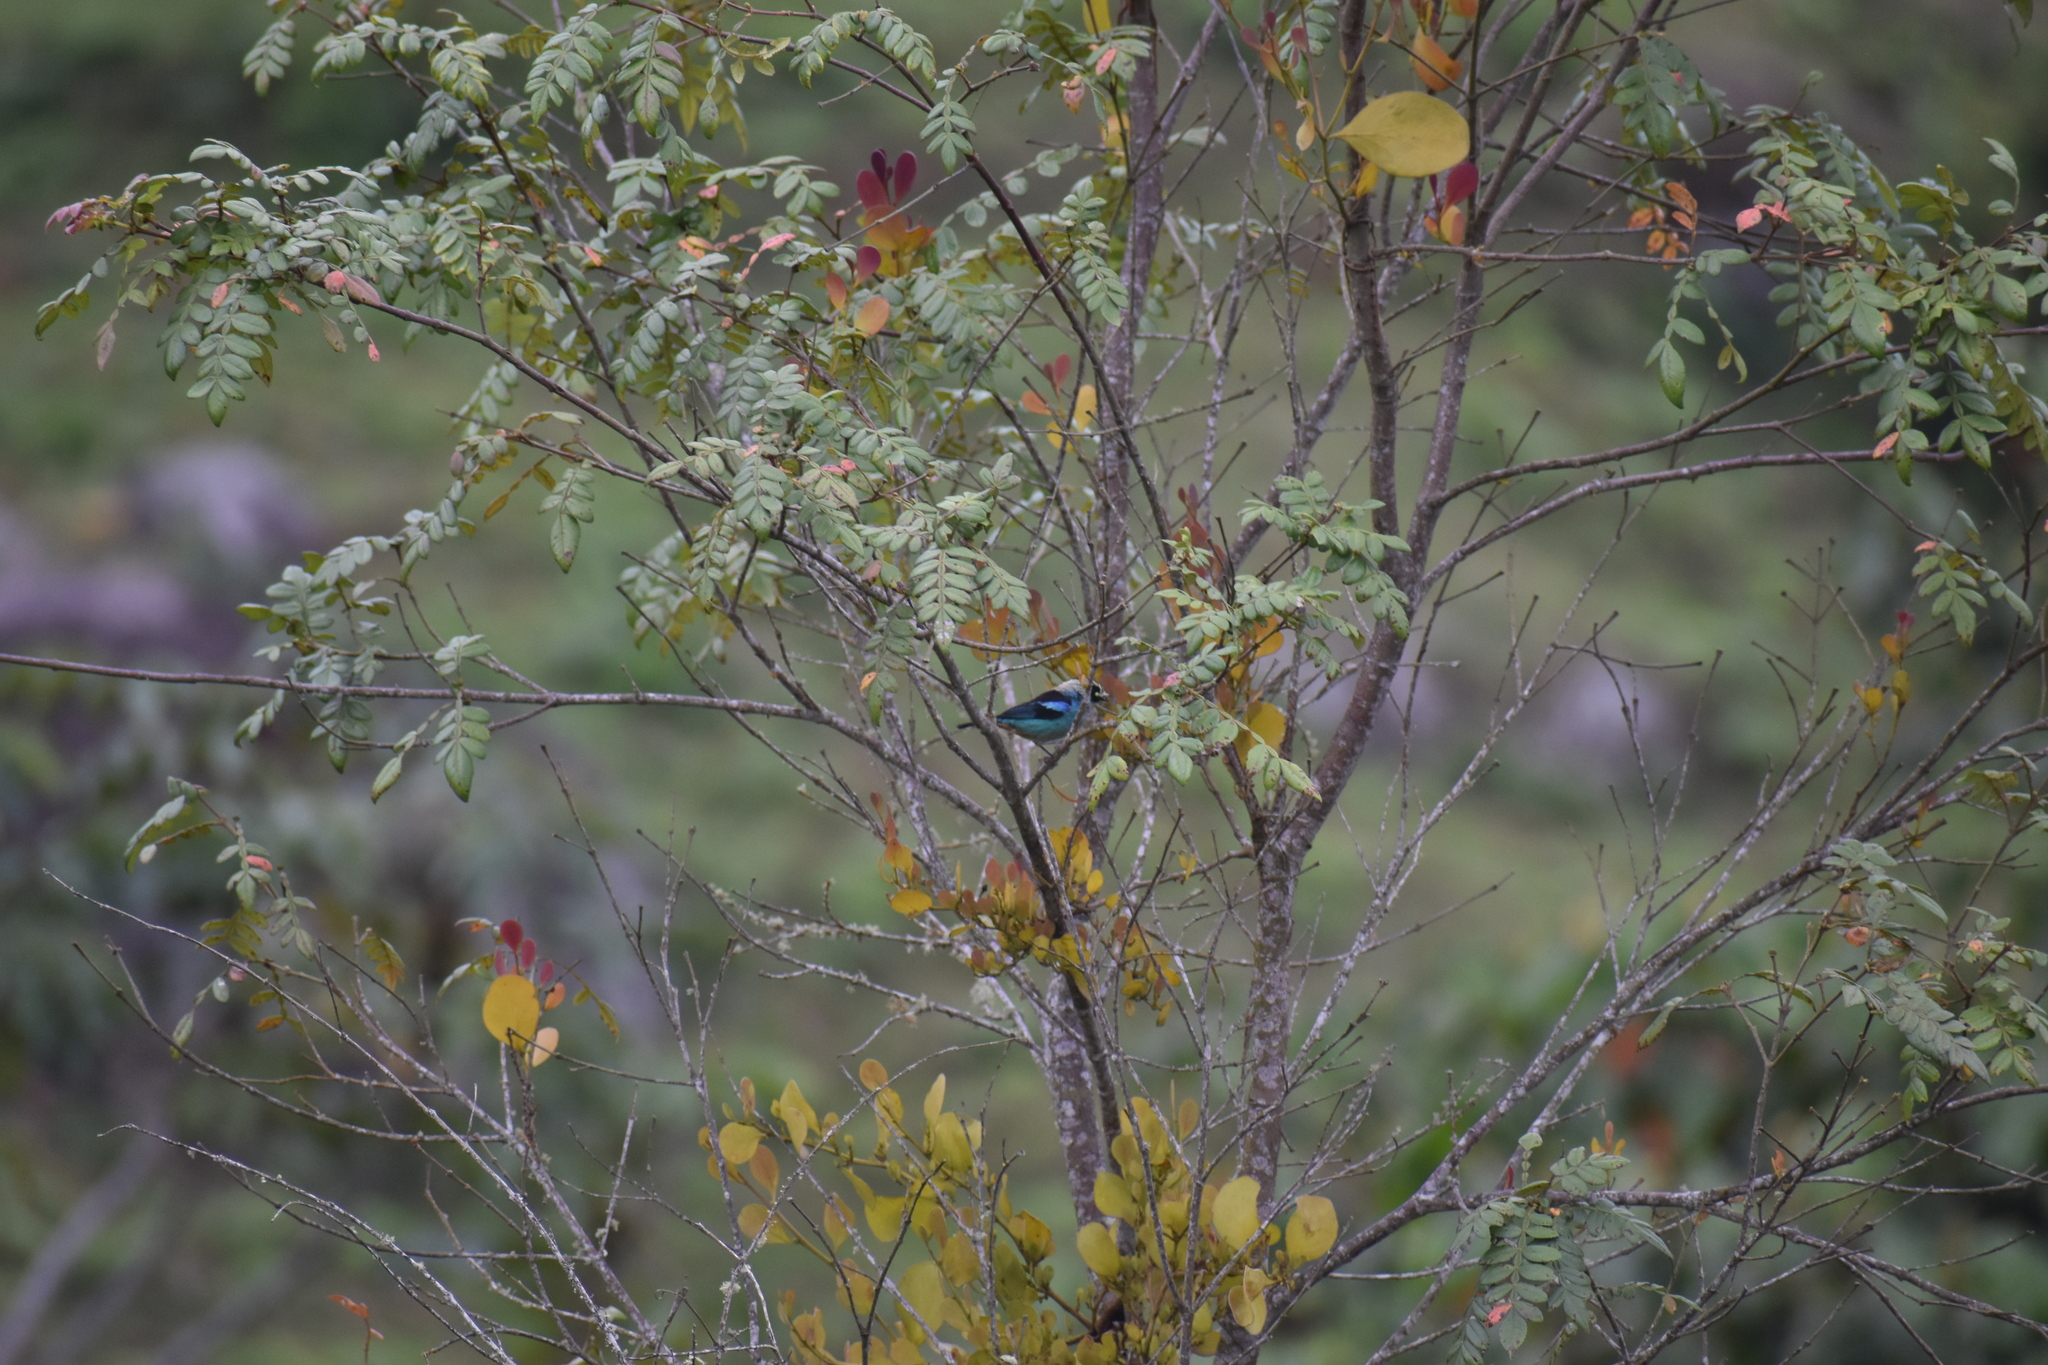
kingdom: Animalia
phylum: Chordata
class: Aves
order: Passeriformes
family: Thraupidae
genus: Tangara
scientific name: Tangara labradorides
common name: Metallic-green tanager
